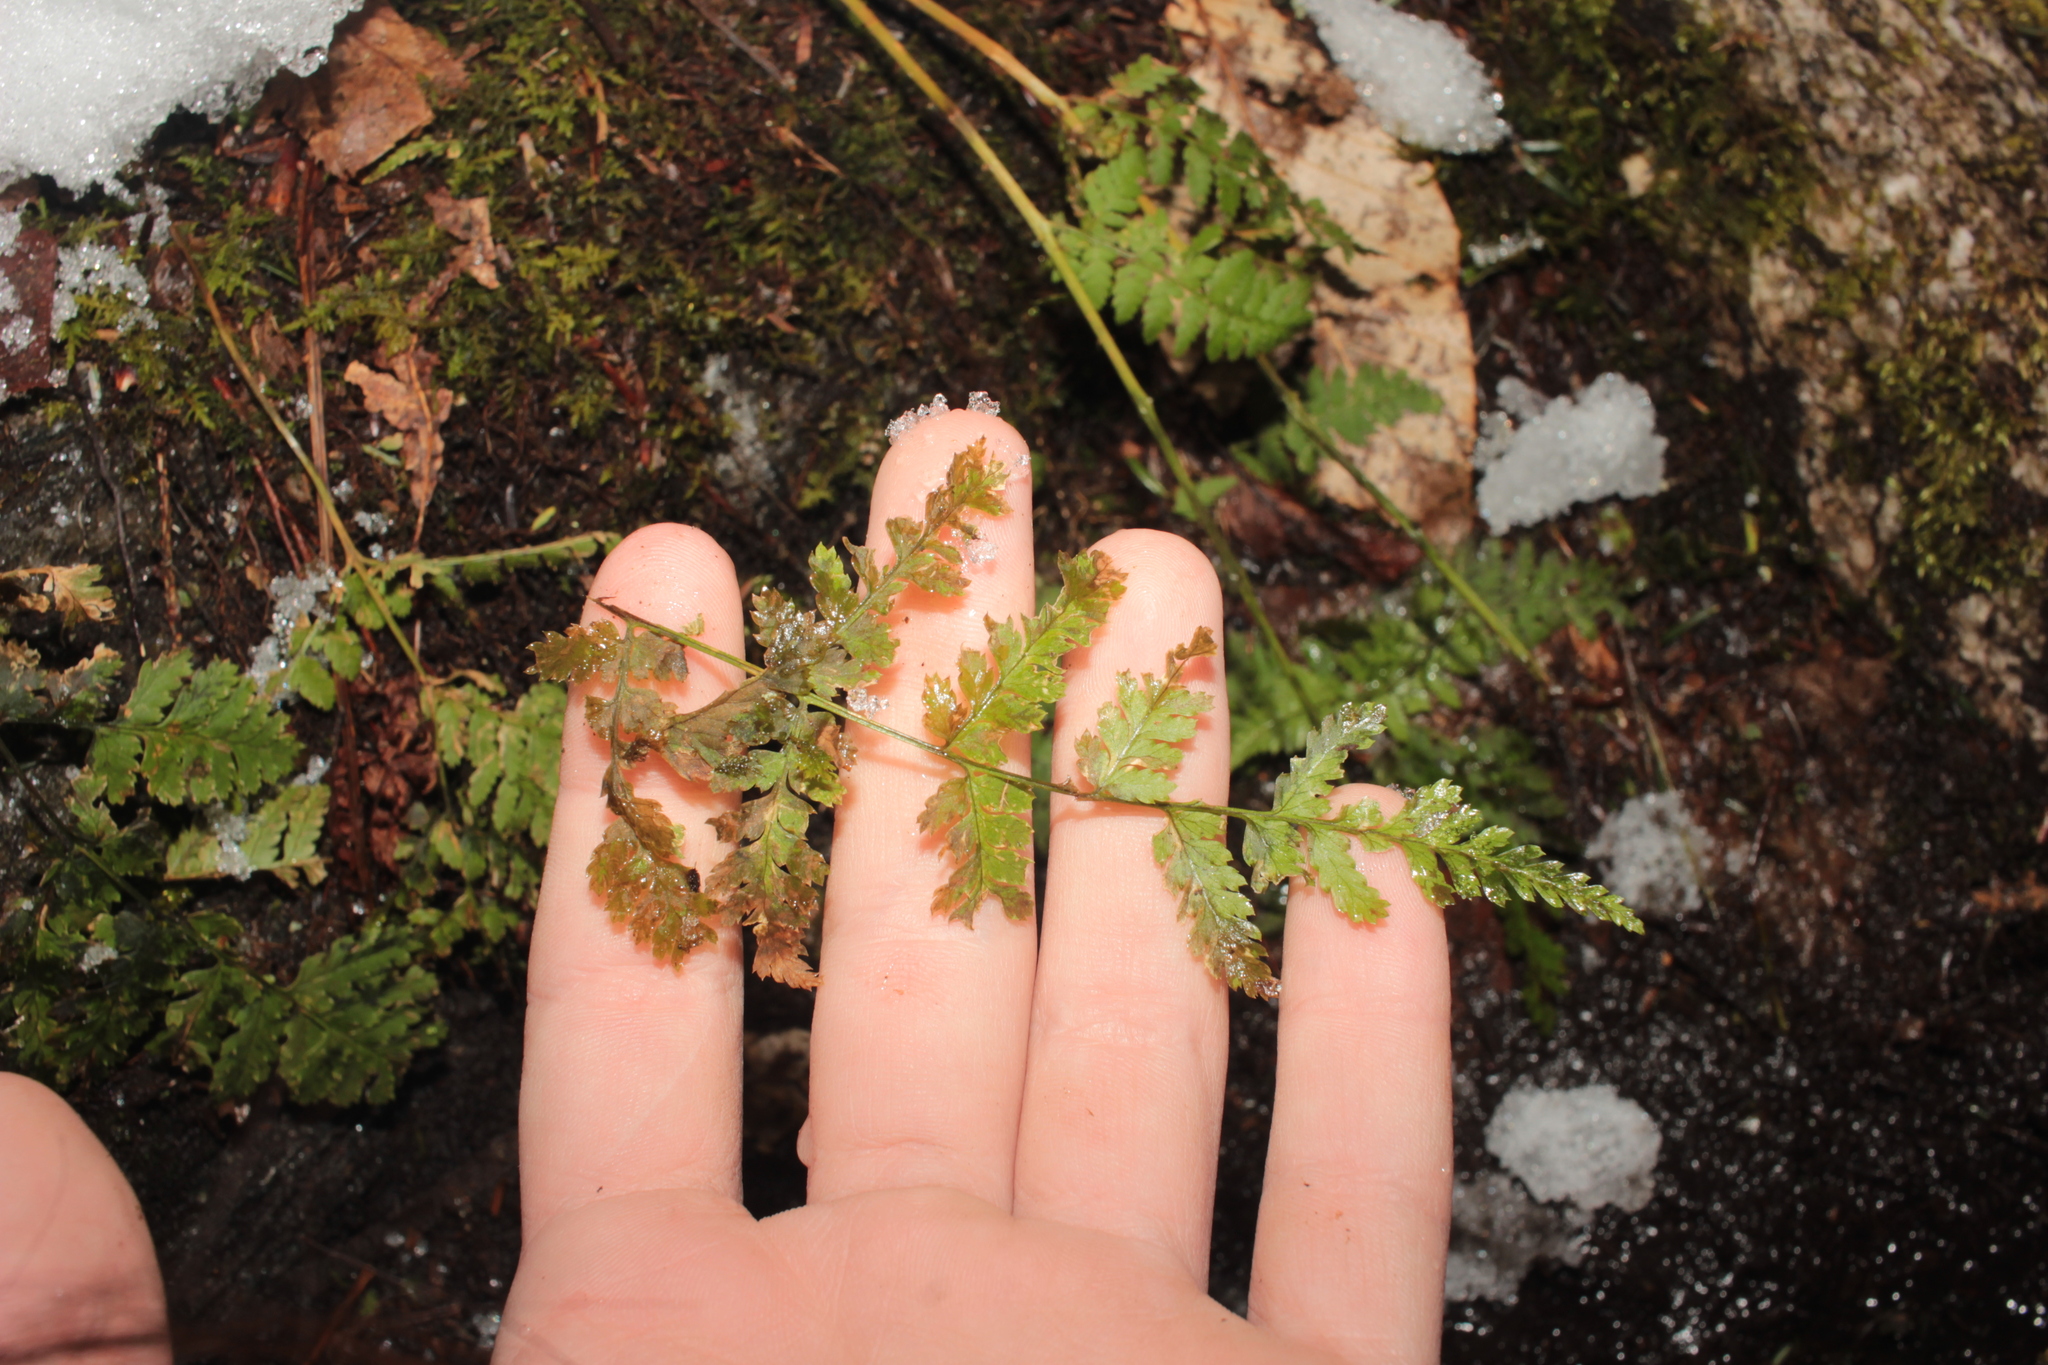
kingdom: Plantae
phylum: Tracheophyta
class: Polypodiopsida
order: Polypodiales
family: Dryopteridaceae
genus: Dryopteris
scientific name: Dryopteris intermedia
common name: Evergreen wood fern
